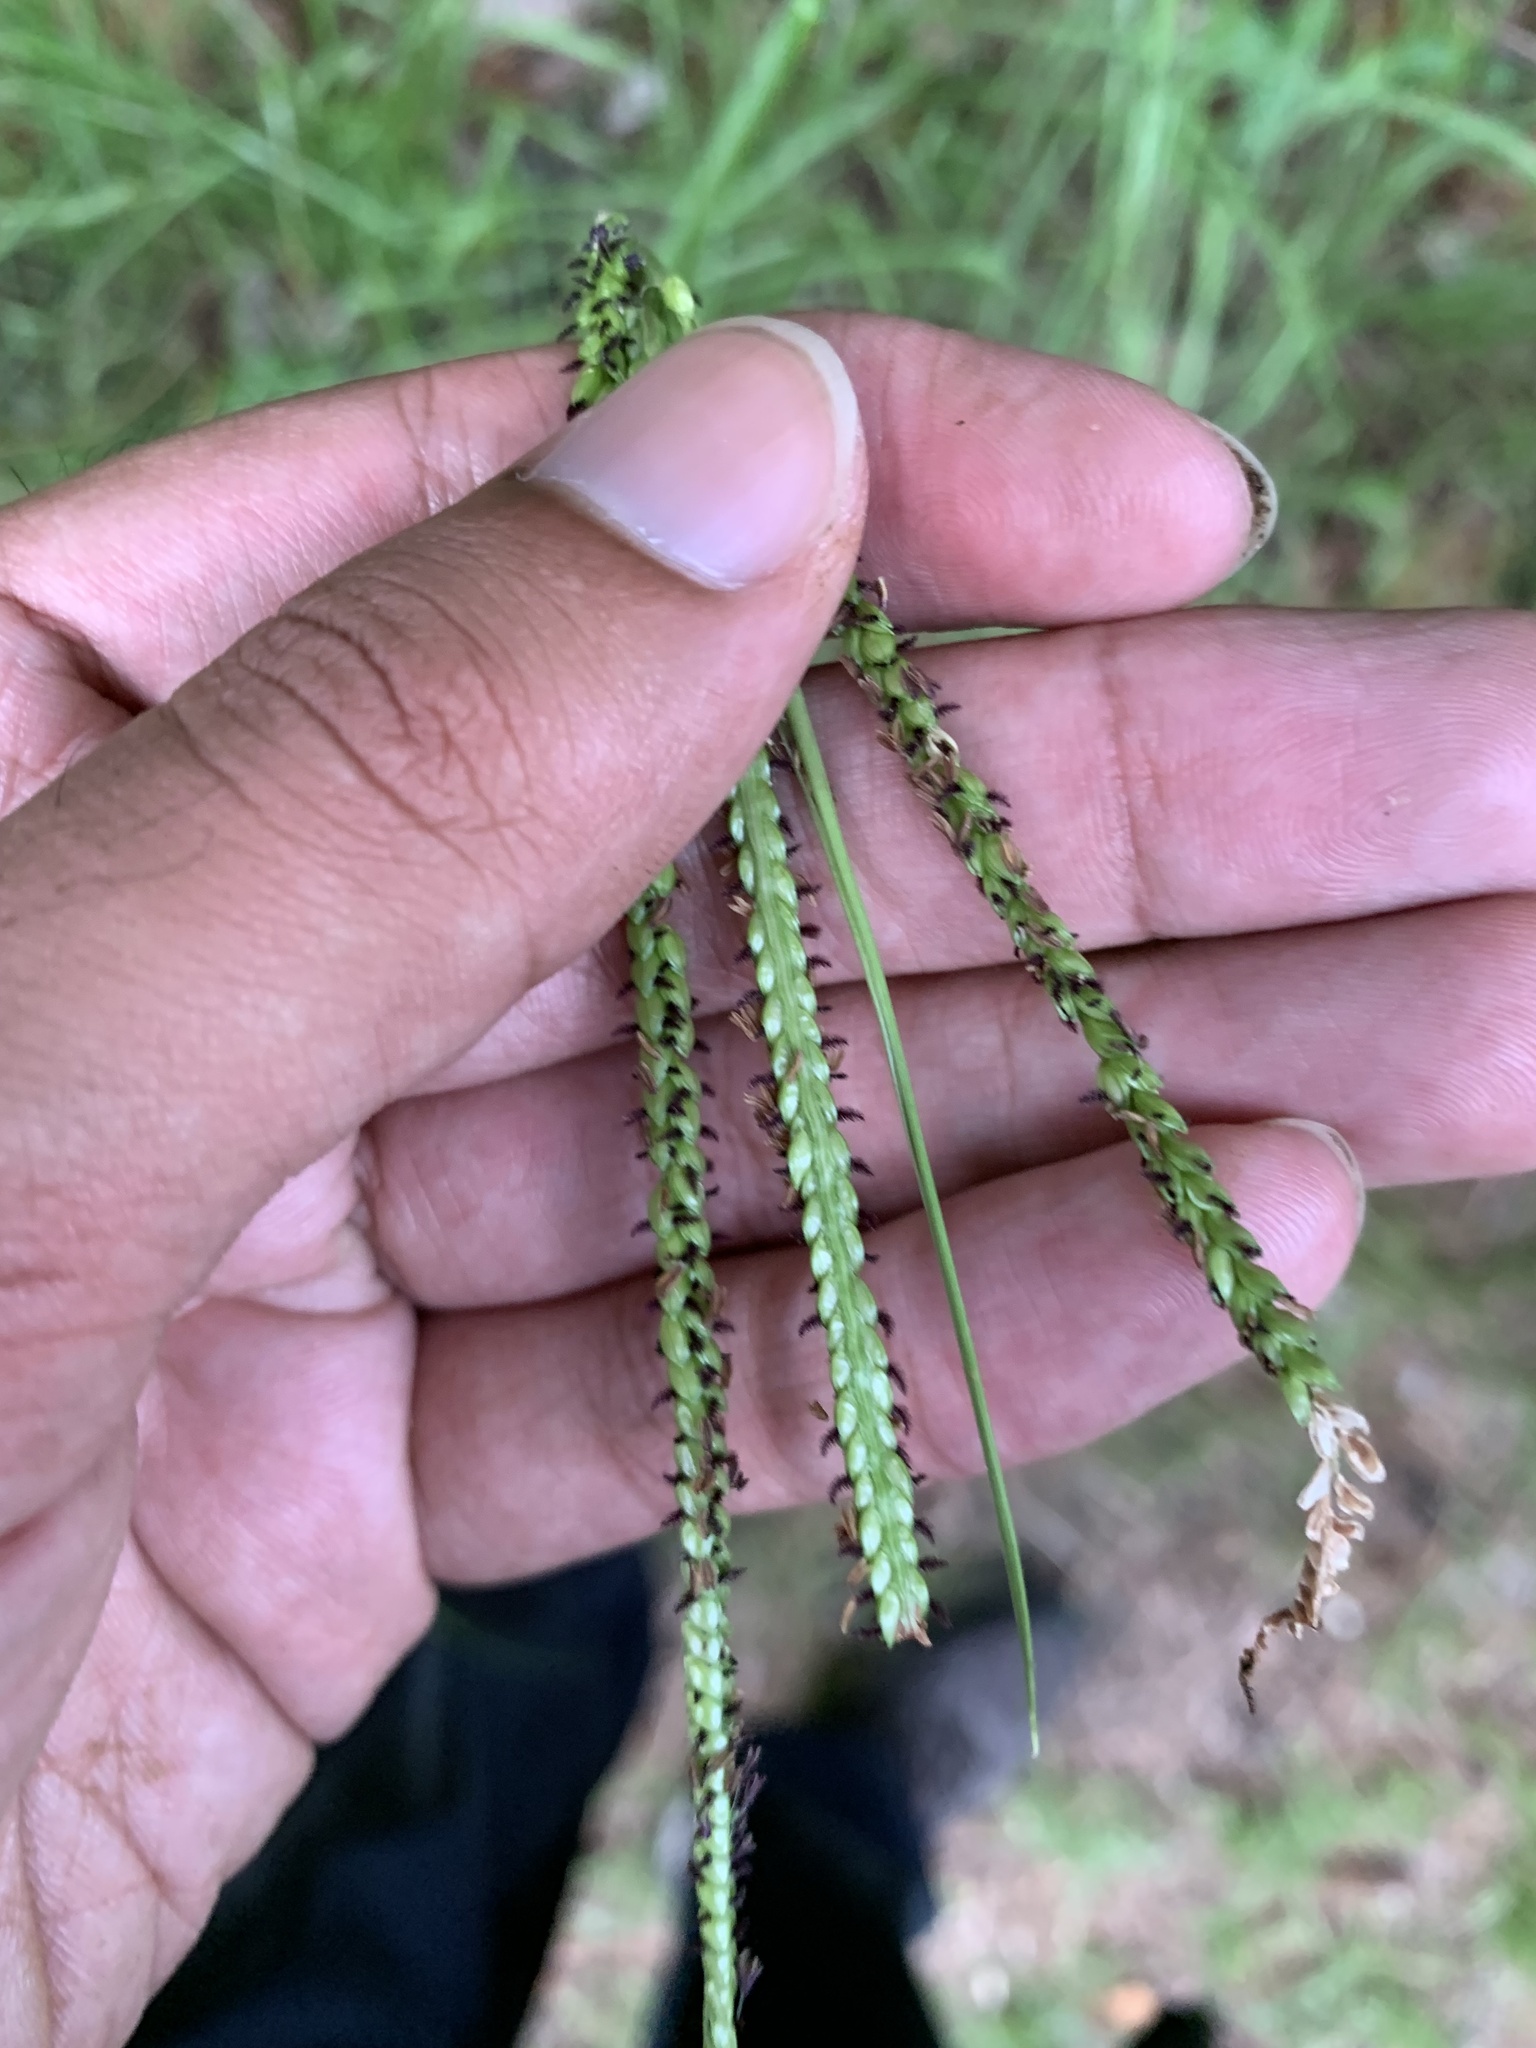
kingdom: Plantae
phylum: Tracheophyta
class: Liliopsida
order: Poales
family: Poaceae
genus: Paspalum
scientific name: Paspalum notatum
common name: Bahiagrass
